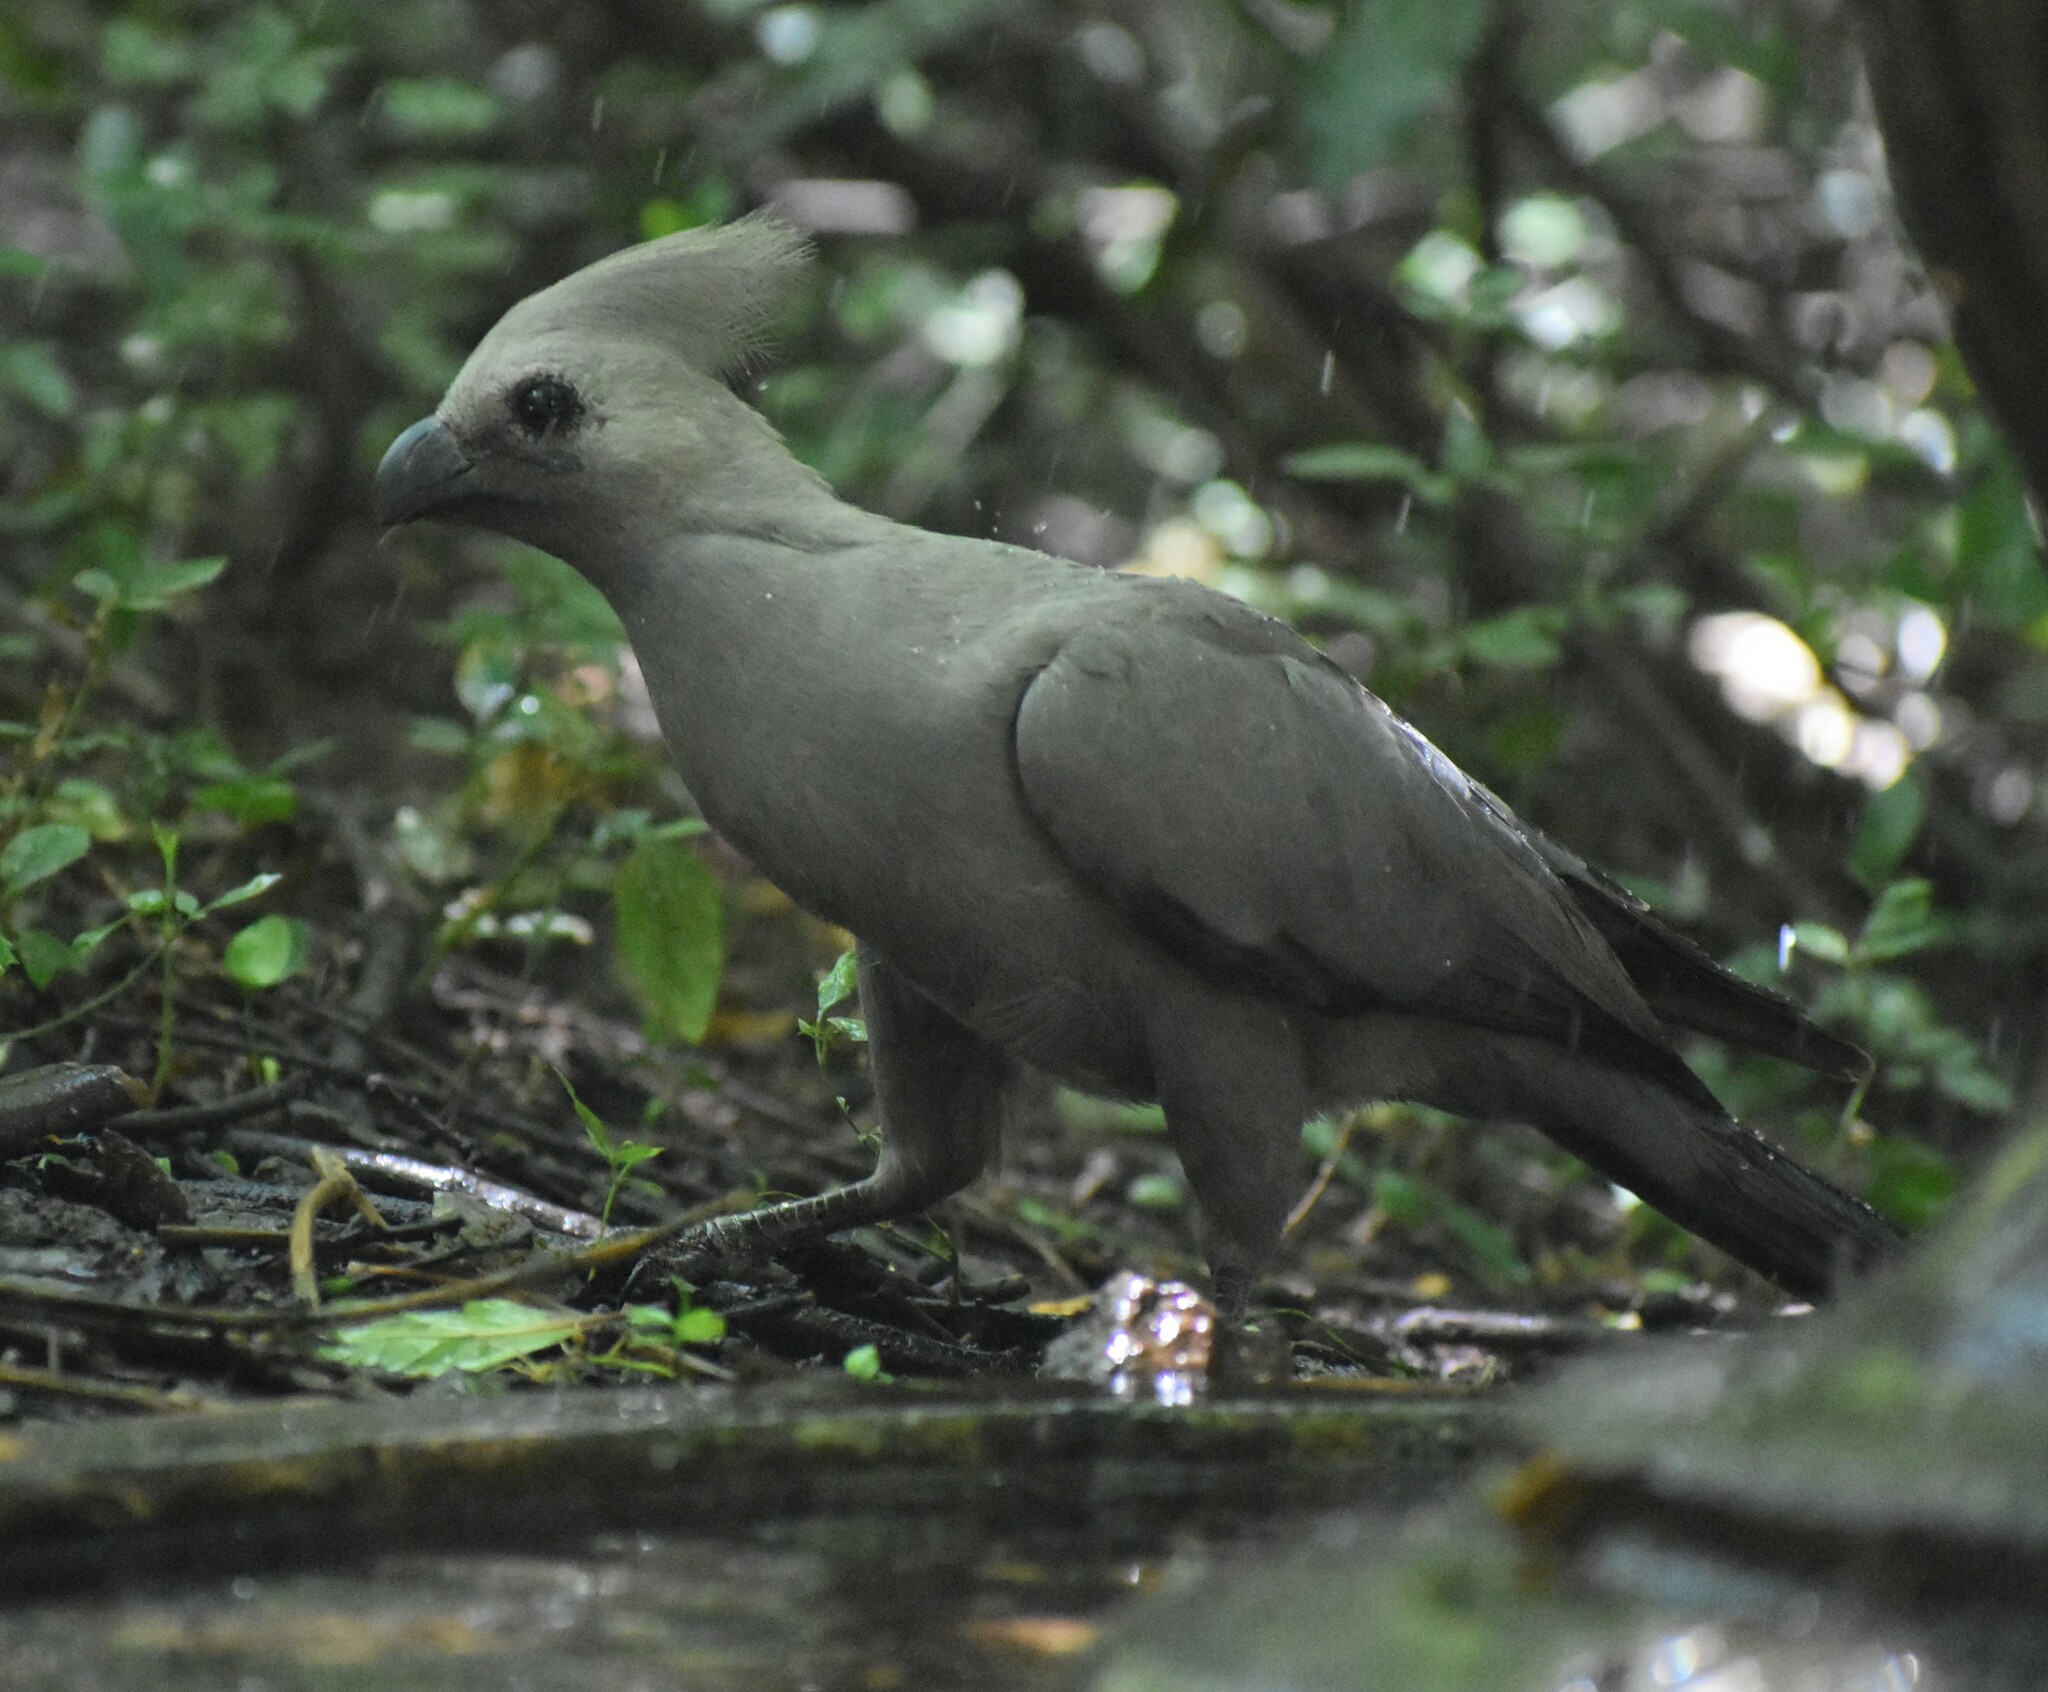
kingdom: Animalia
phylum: Chordata
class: Aves
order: Musophagiformes
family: Musophagidae
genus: Corythaixoides
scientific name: Corythaixoides concolor
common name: Grey go-away-bird
